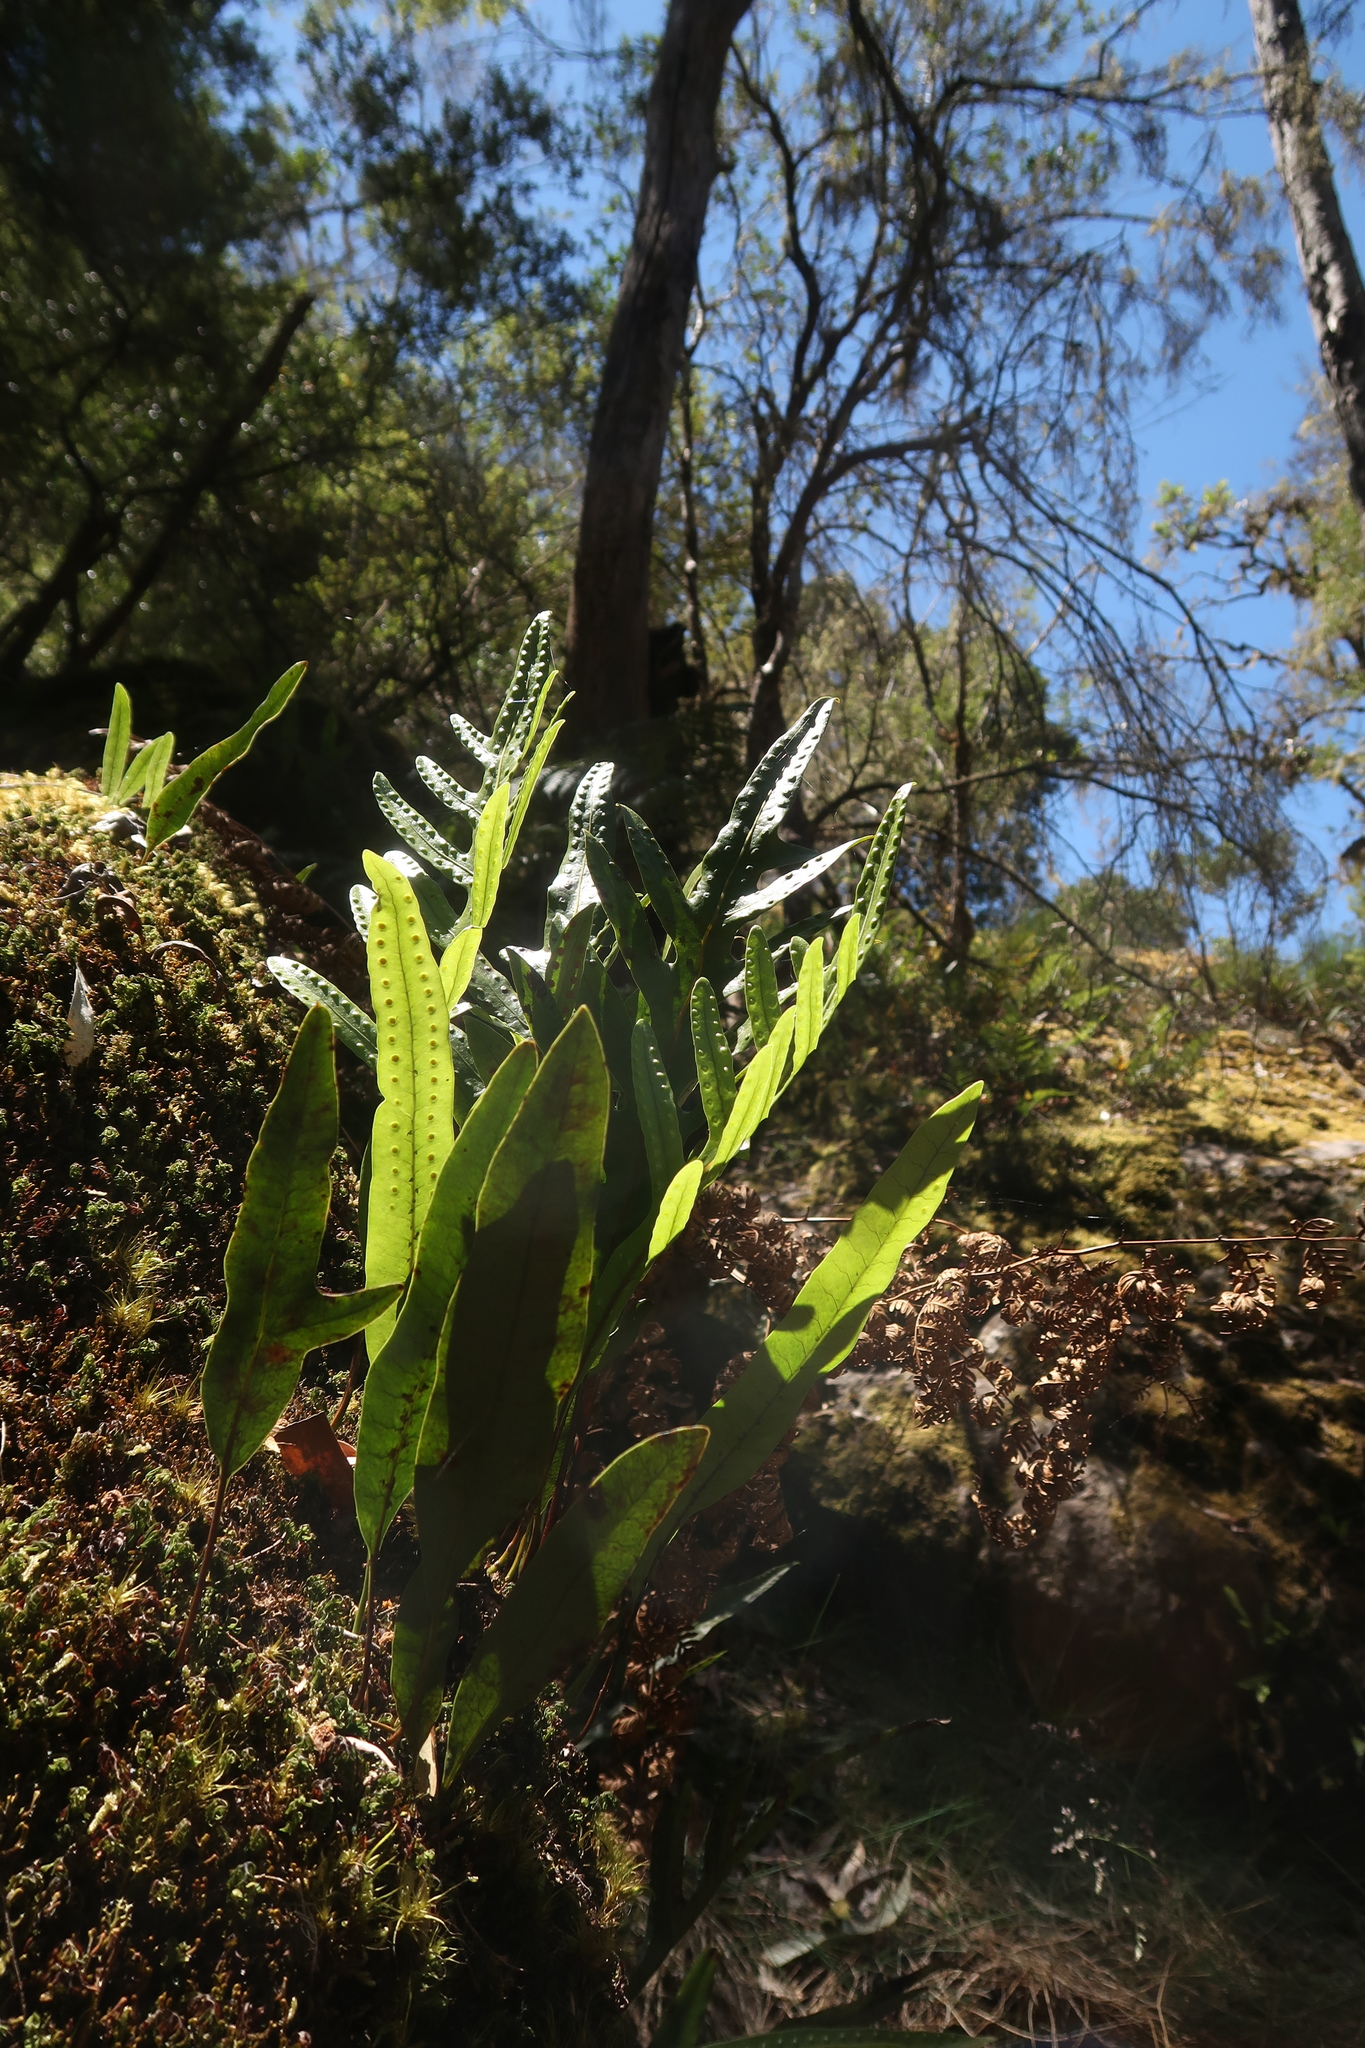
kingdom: Plantae
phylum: Tracheophyta
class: Polypodiopsida
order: Polypodiales
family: Polypodiaceae
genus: Lecanopteris
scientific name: Lecanopteris pustulata
